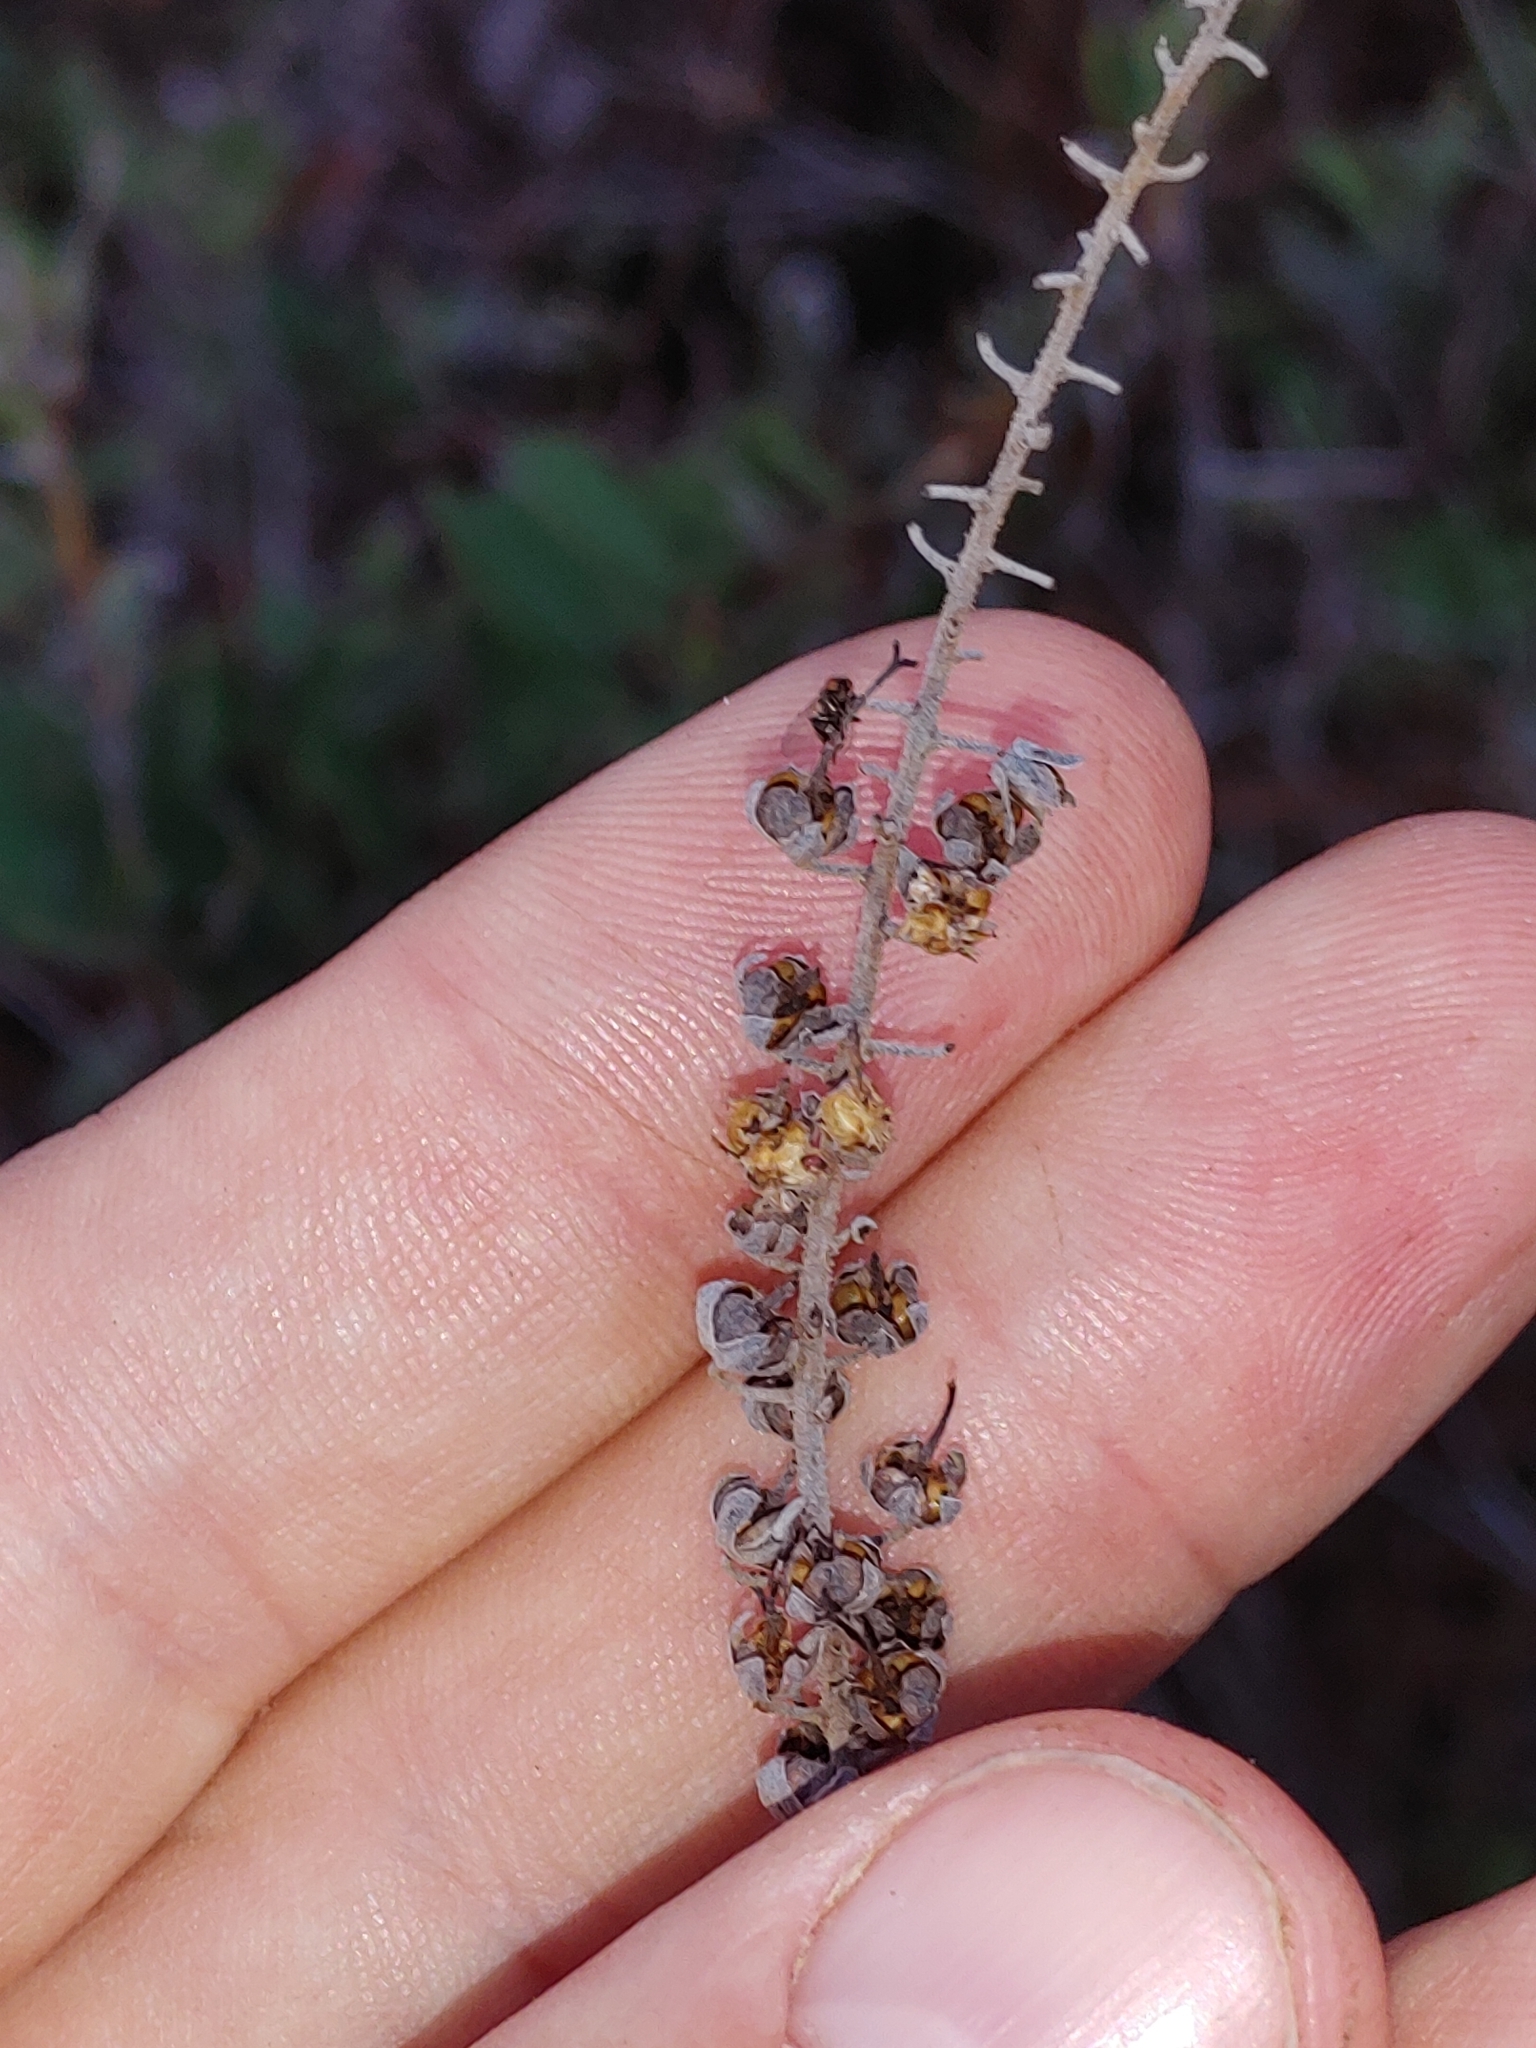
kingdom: Plantae
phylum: Tracheophyta
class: Magnoliopsida
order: Ericales
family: Clethraceae
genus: Clethra
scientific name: Clethra alnifolia
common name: Sweet pepperbush
